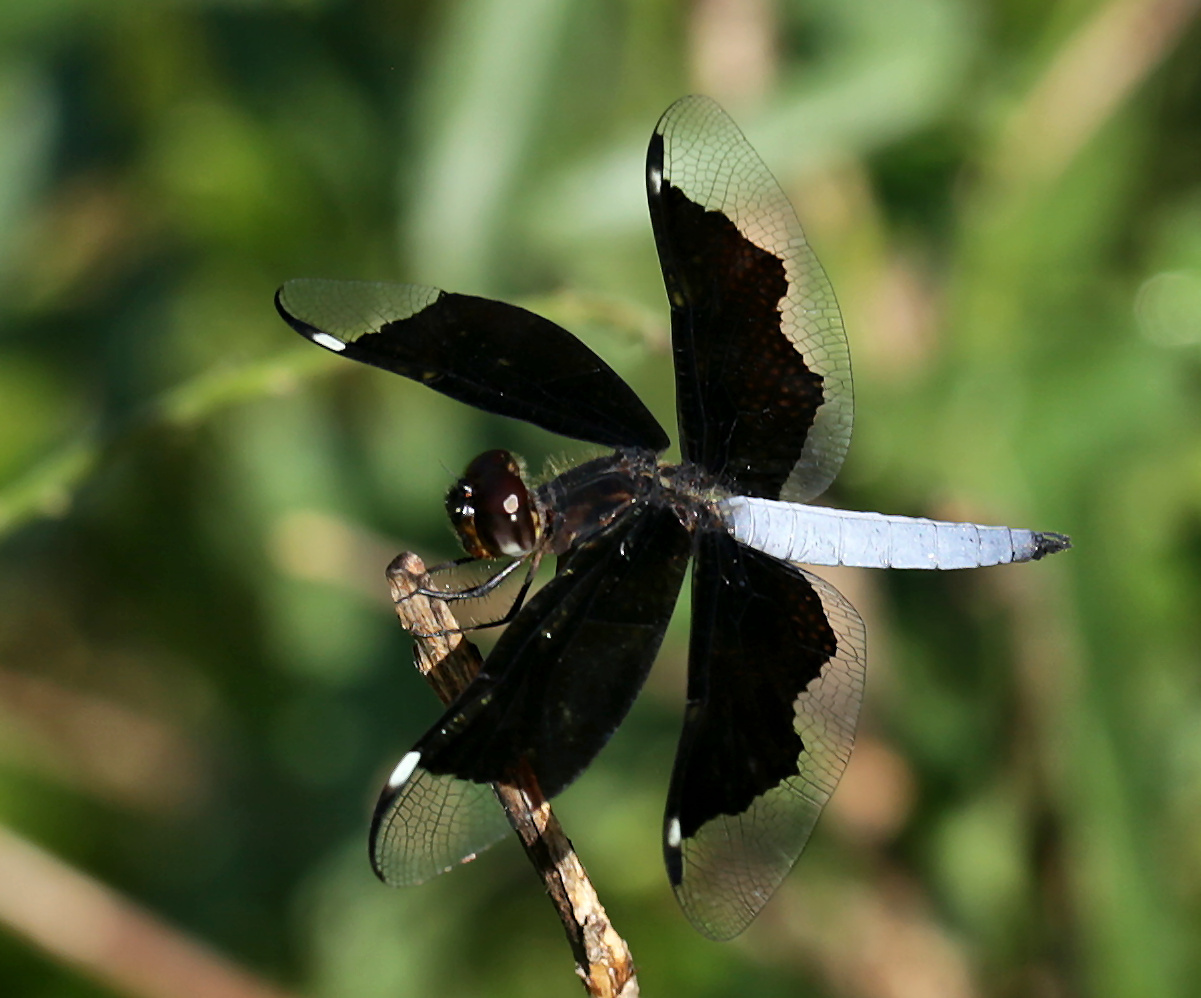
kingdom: Animalia
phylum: Arthropoda
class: Insecta
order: Odonata
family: Libellulidae
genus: Palpopleura
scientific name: Palpopleura lucia
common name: Lucia widow
